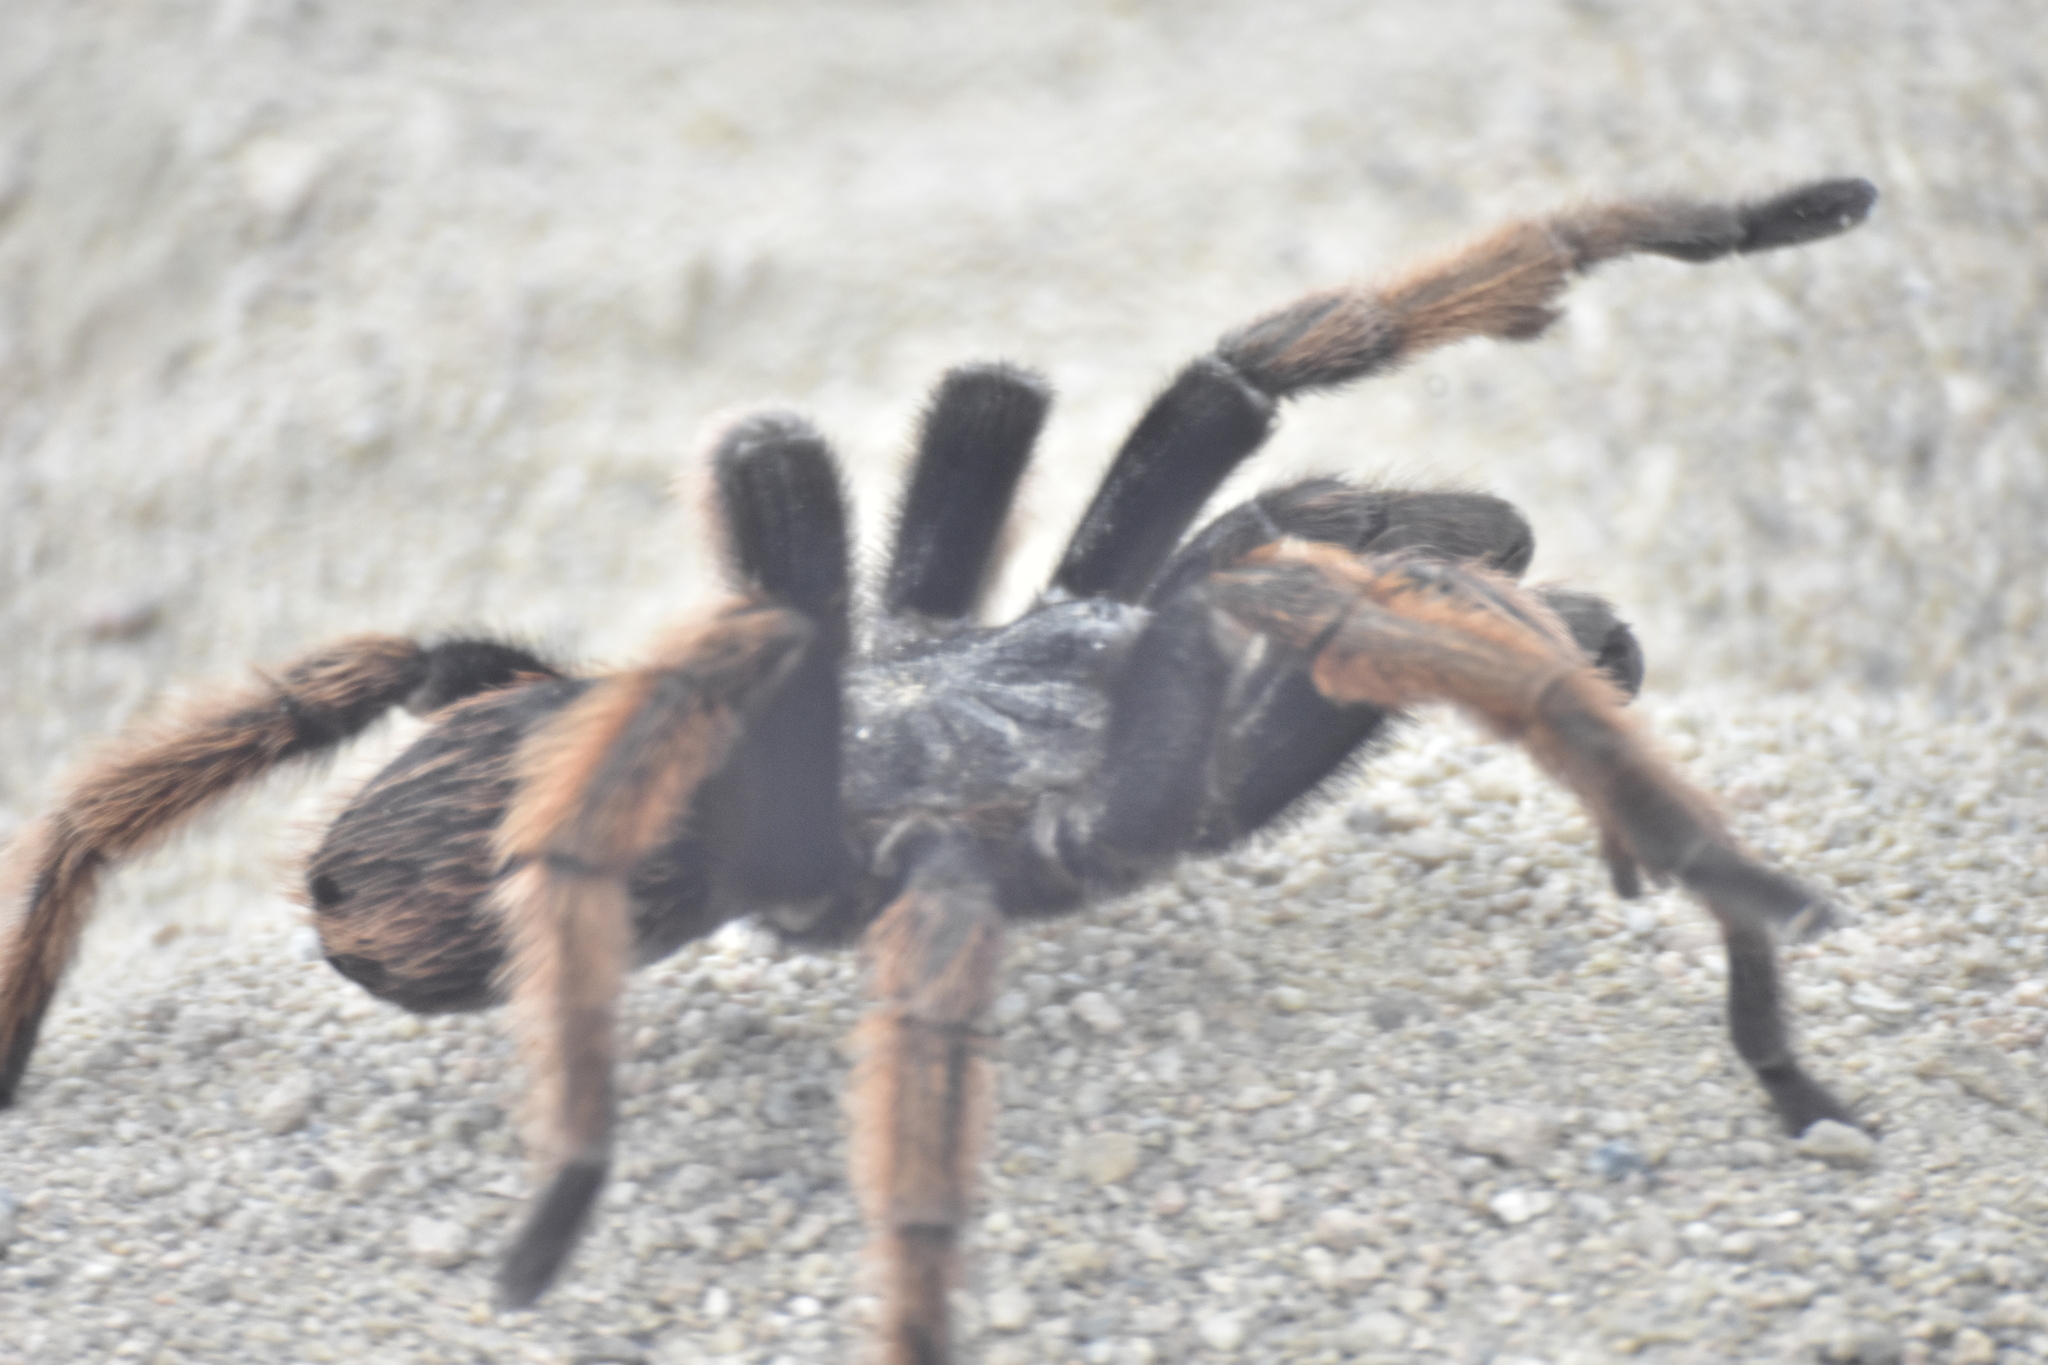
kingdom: Animalia
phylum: Arthropoda
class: Arachnida
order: Araneae
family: Theraphosidae
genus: Brachypelma
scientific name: Brachypelma klaasi
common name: Mexican pink beauty
